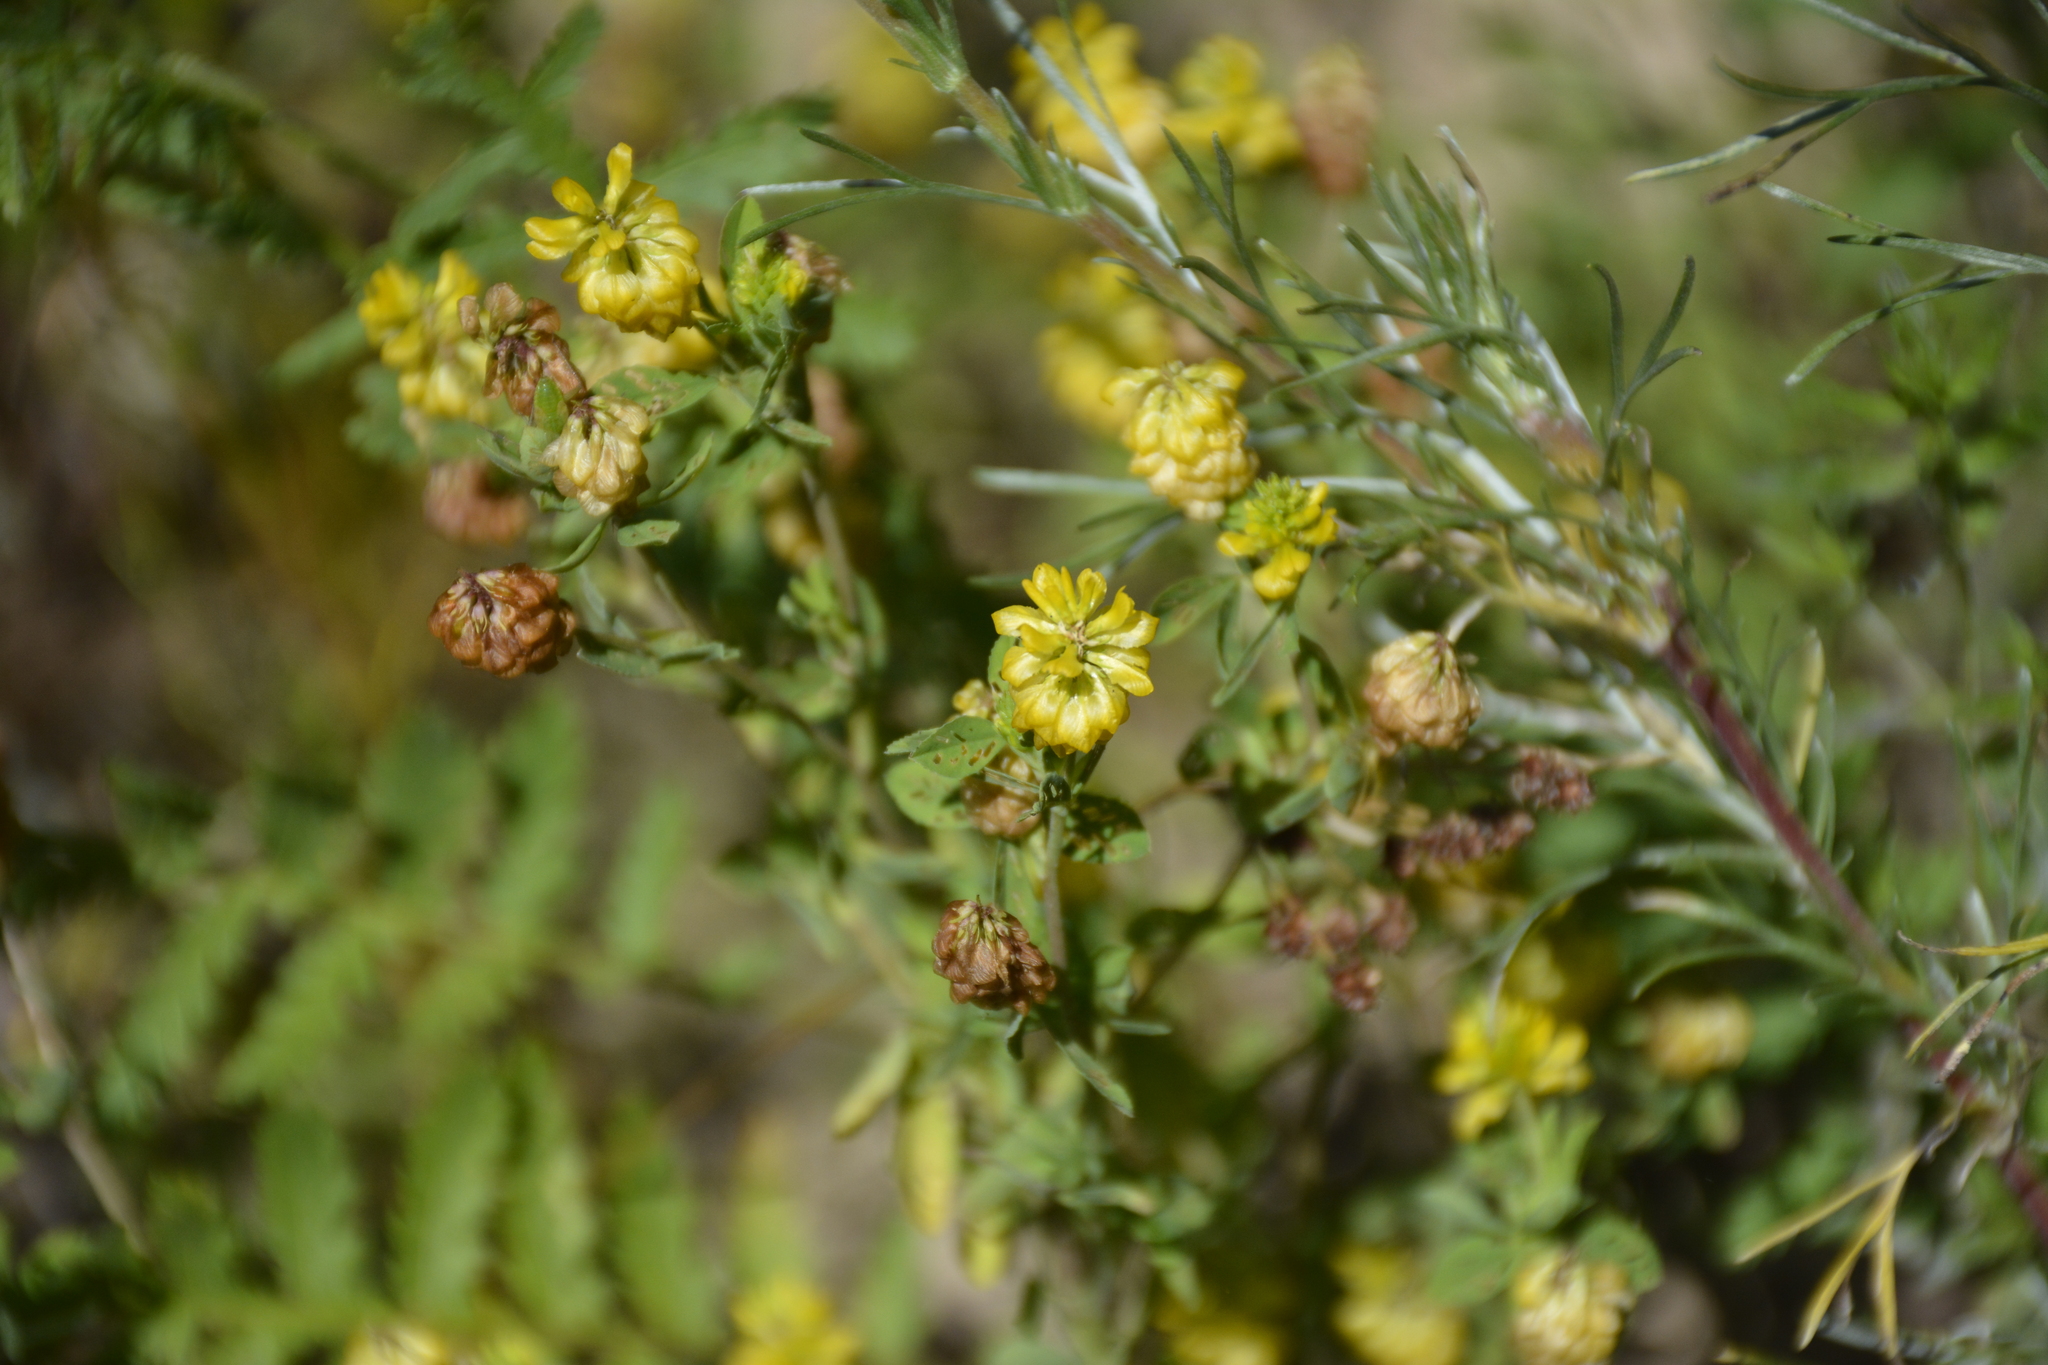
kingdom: Plantae
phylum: Tracheophyta
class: Magnoliopsida
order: Fabales
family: Fabaceae
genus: Trifolium
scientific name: Trifolium aureum
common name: Golden clover
